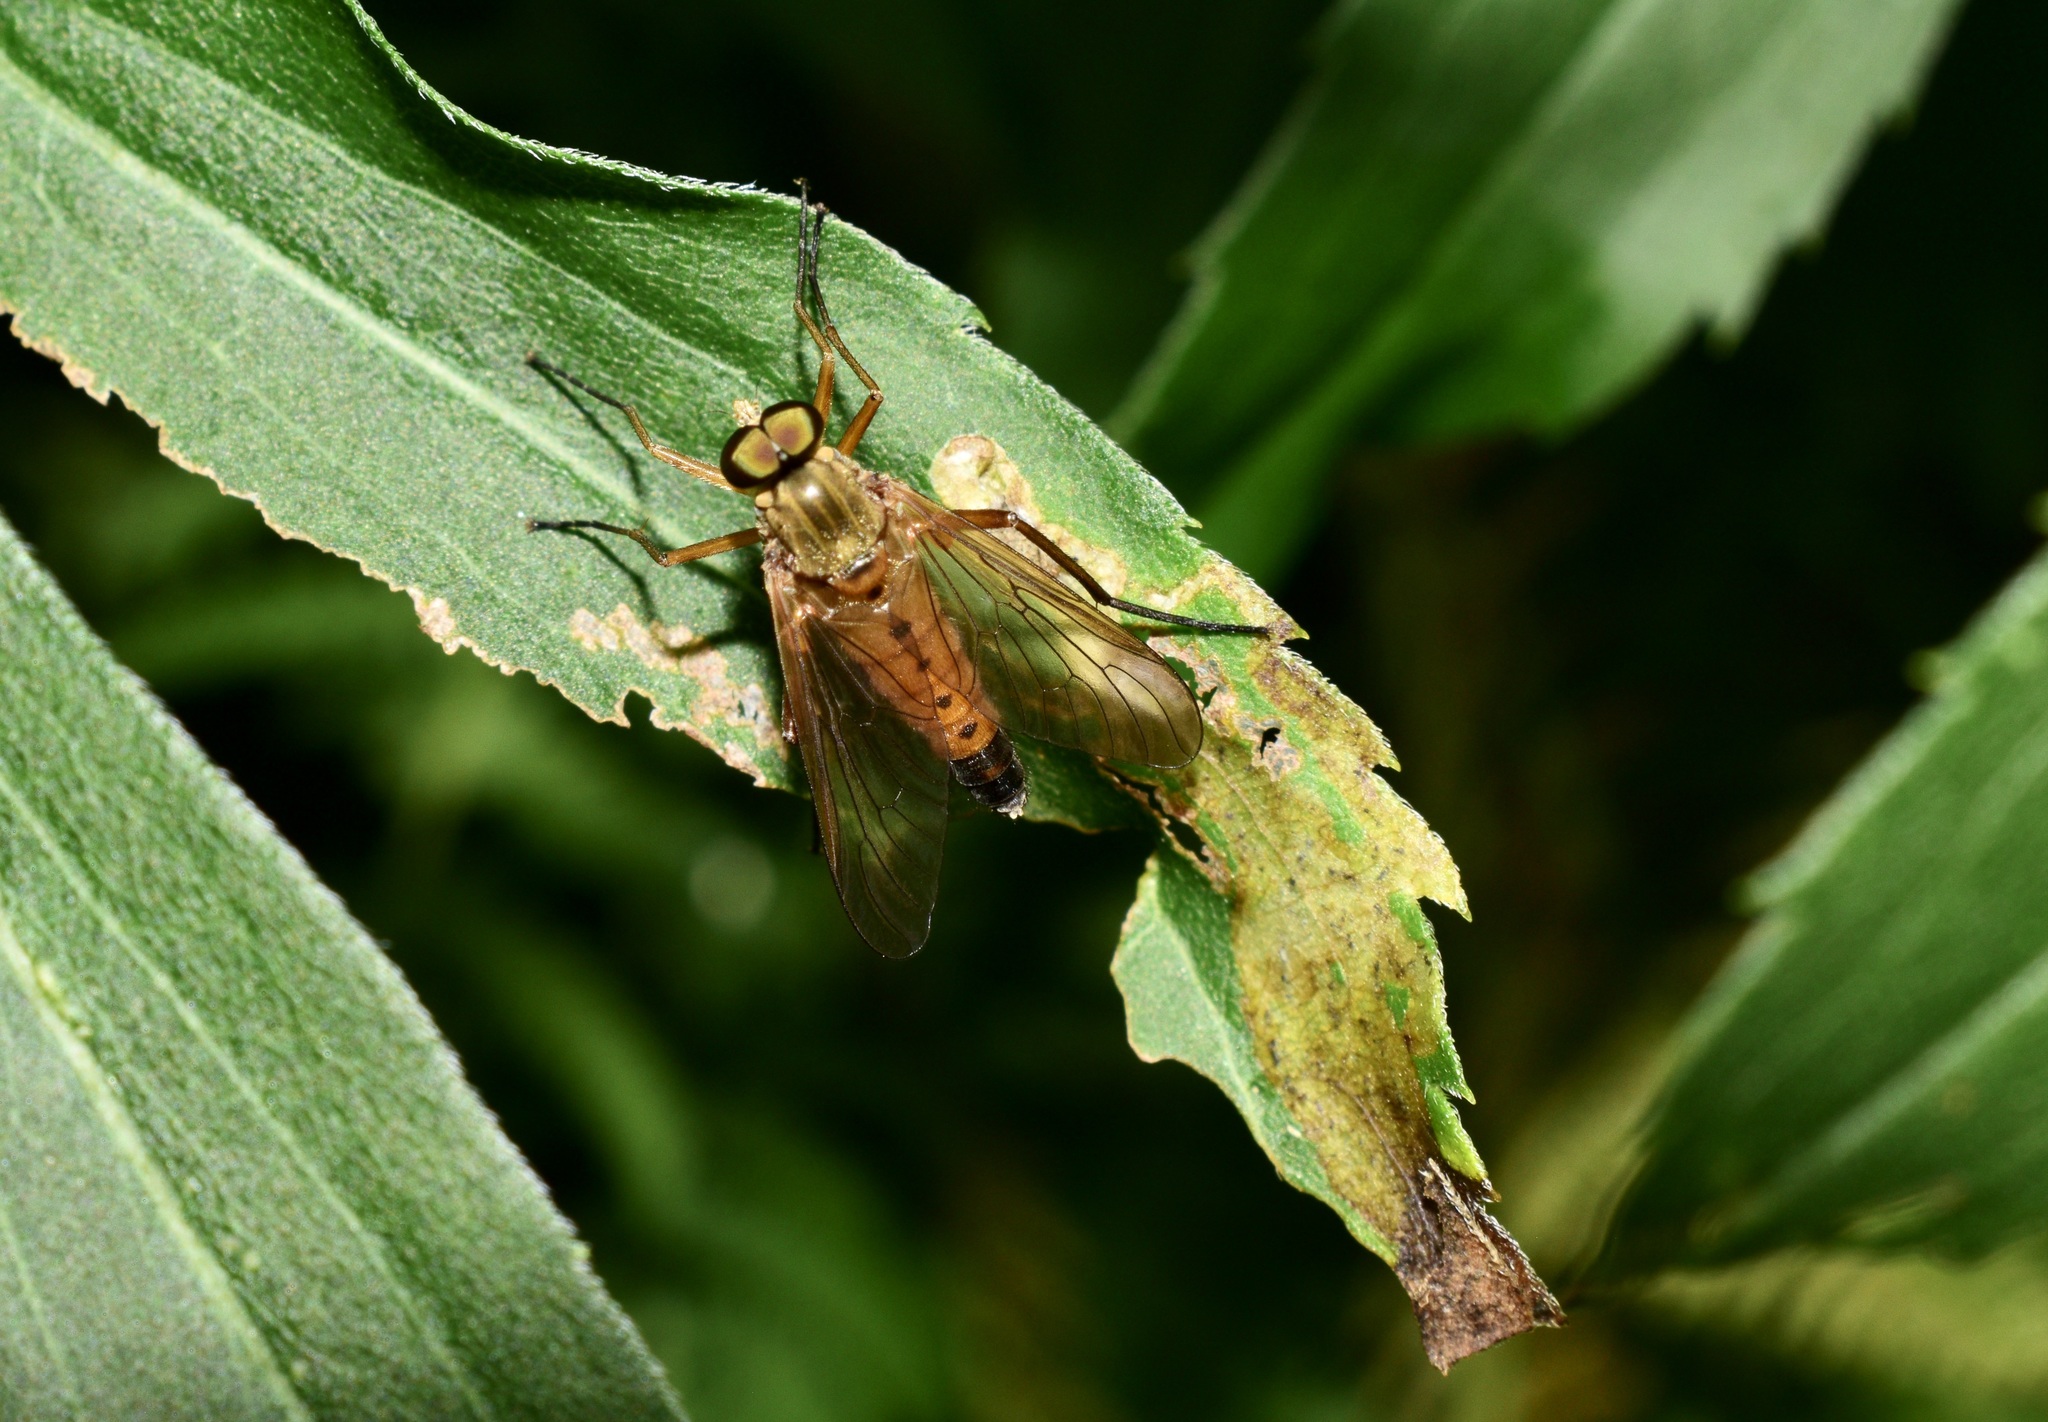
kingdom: Animalia
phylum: Arthropoda
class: Insecta
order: Diptera
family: Rhagionidae
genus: Rhagio
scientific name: Rhagio tringaria
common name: Marsh snipefly
